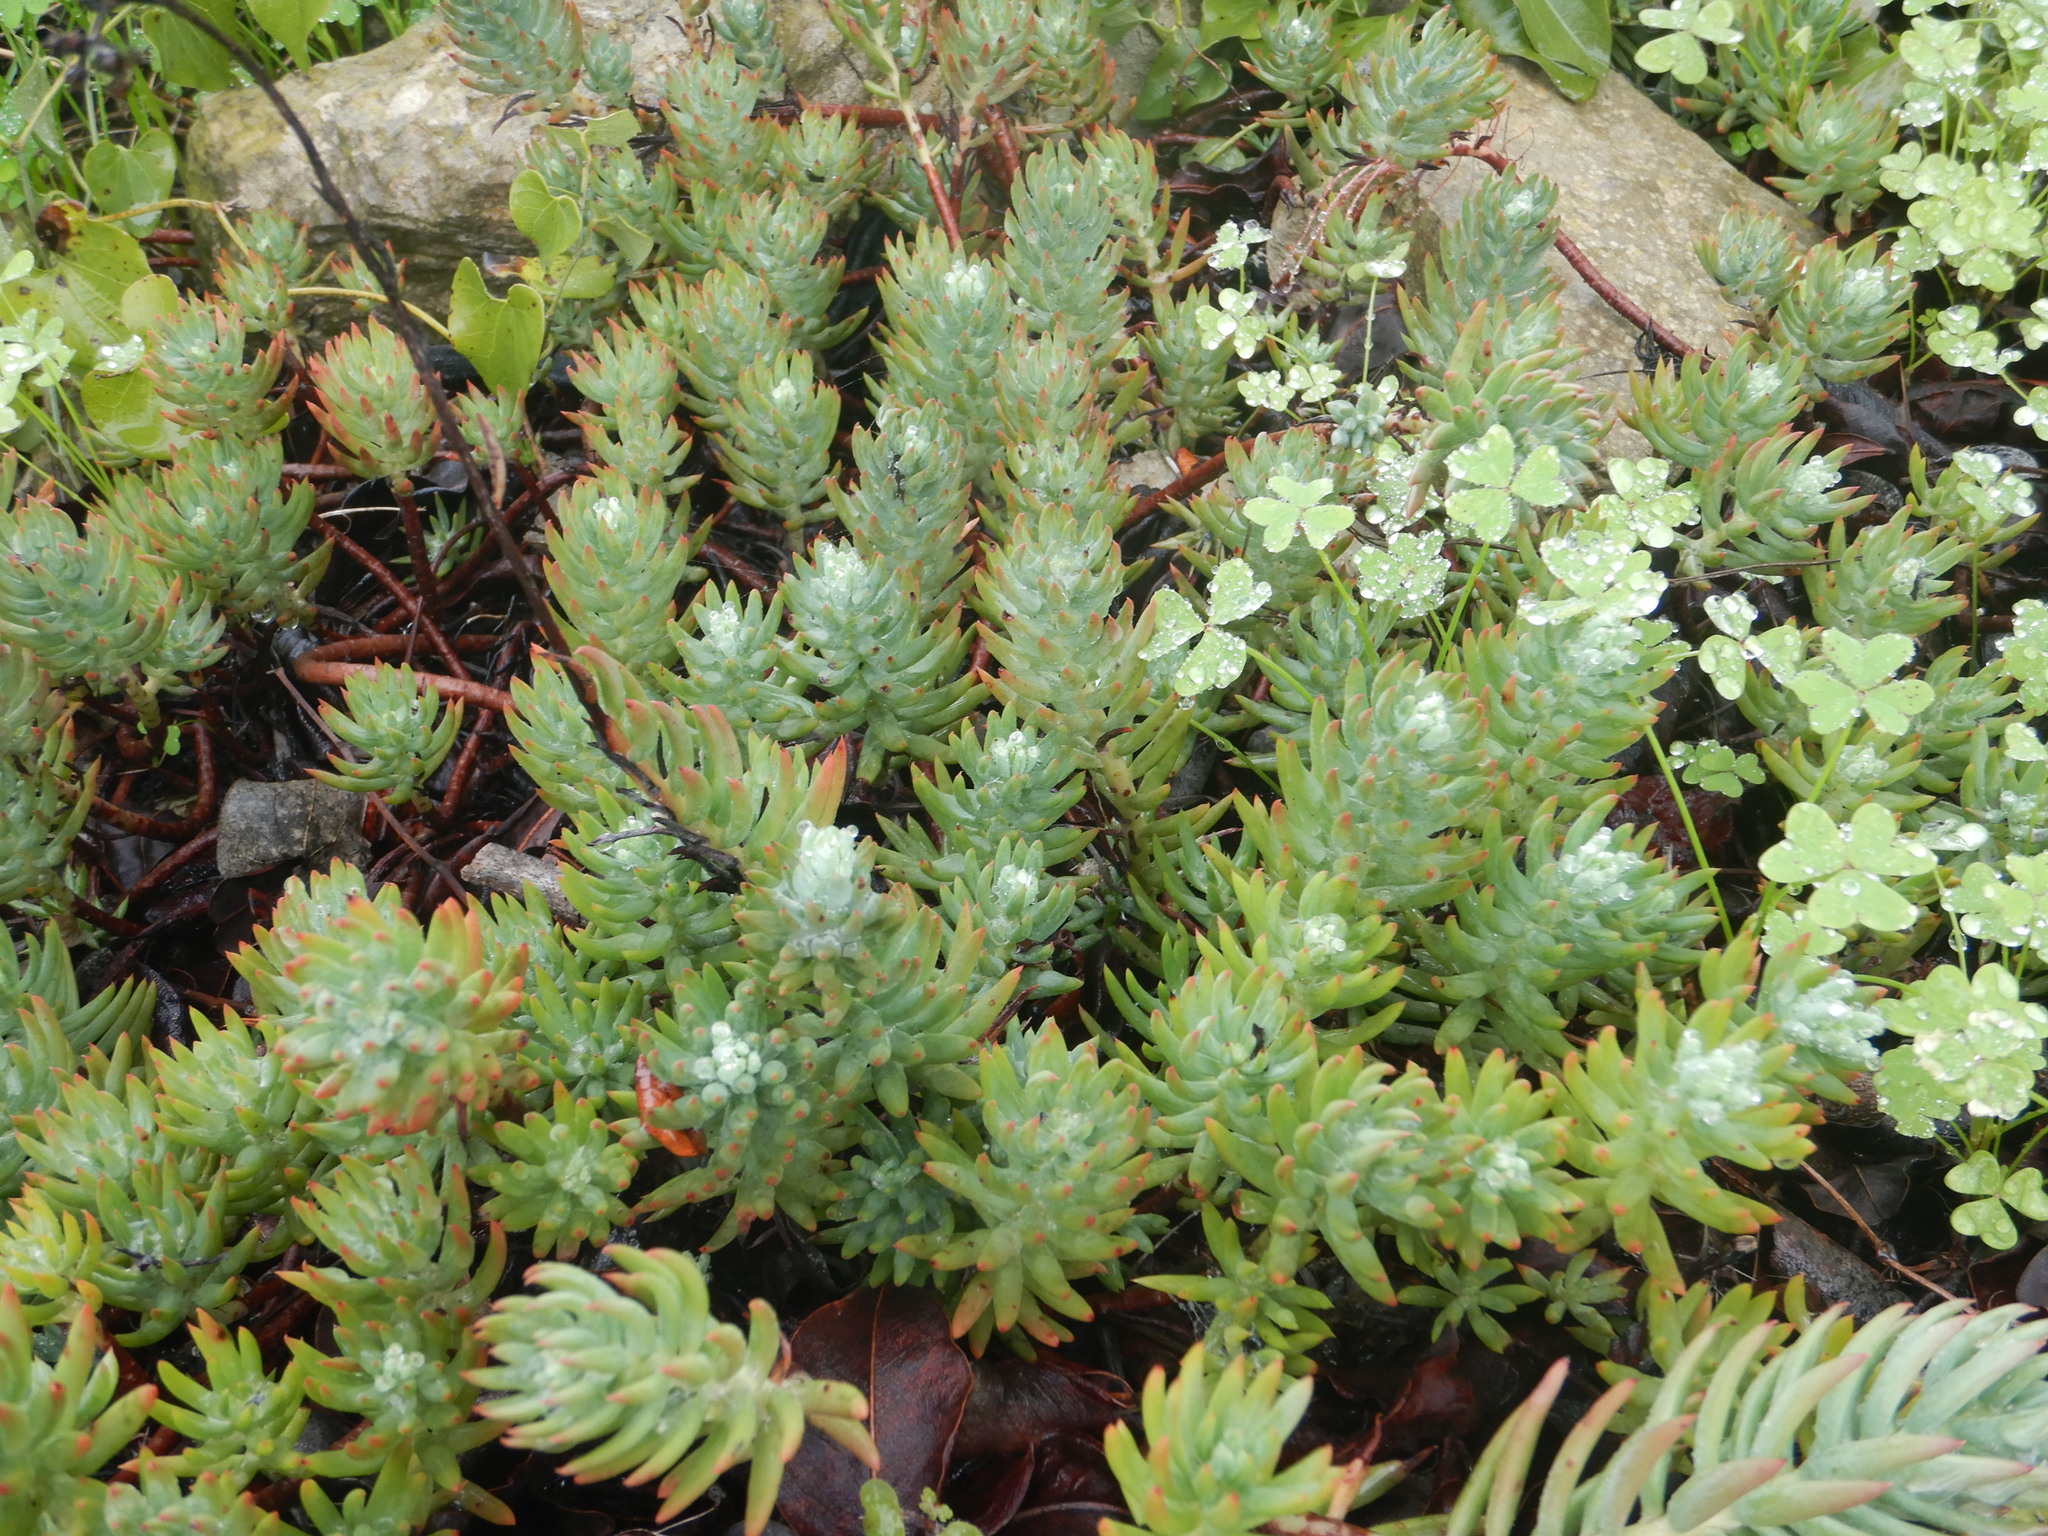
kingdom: Plantae
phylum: Tracheophyta
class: Magnoliopsida
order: Saxifragales
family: Crassulaceae
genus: Petrosedum
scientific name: Petrosedum sediforme
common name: Pale stonecrop
